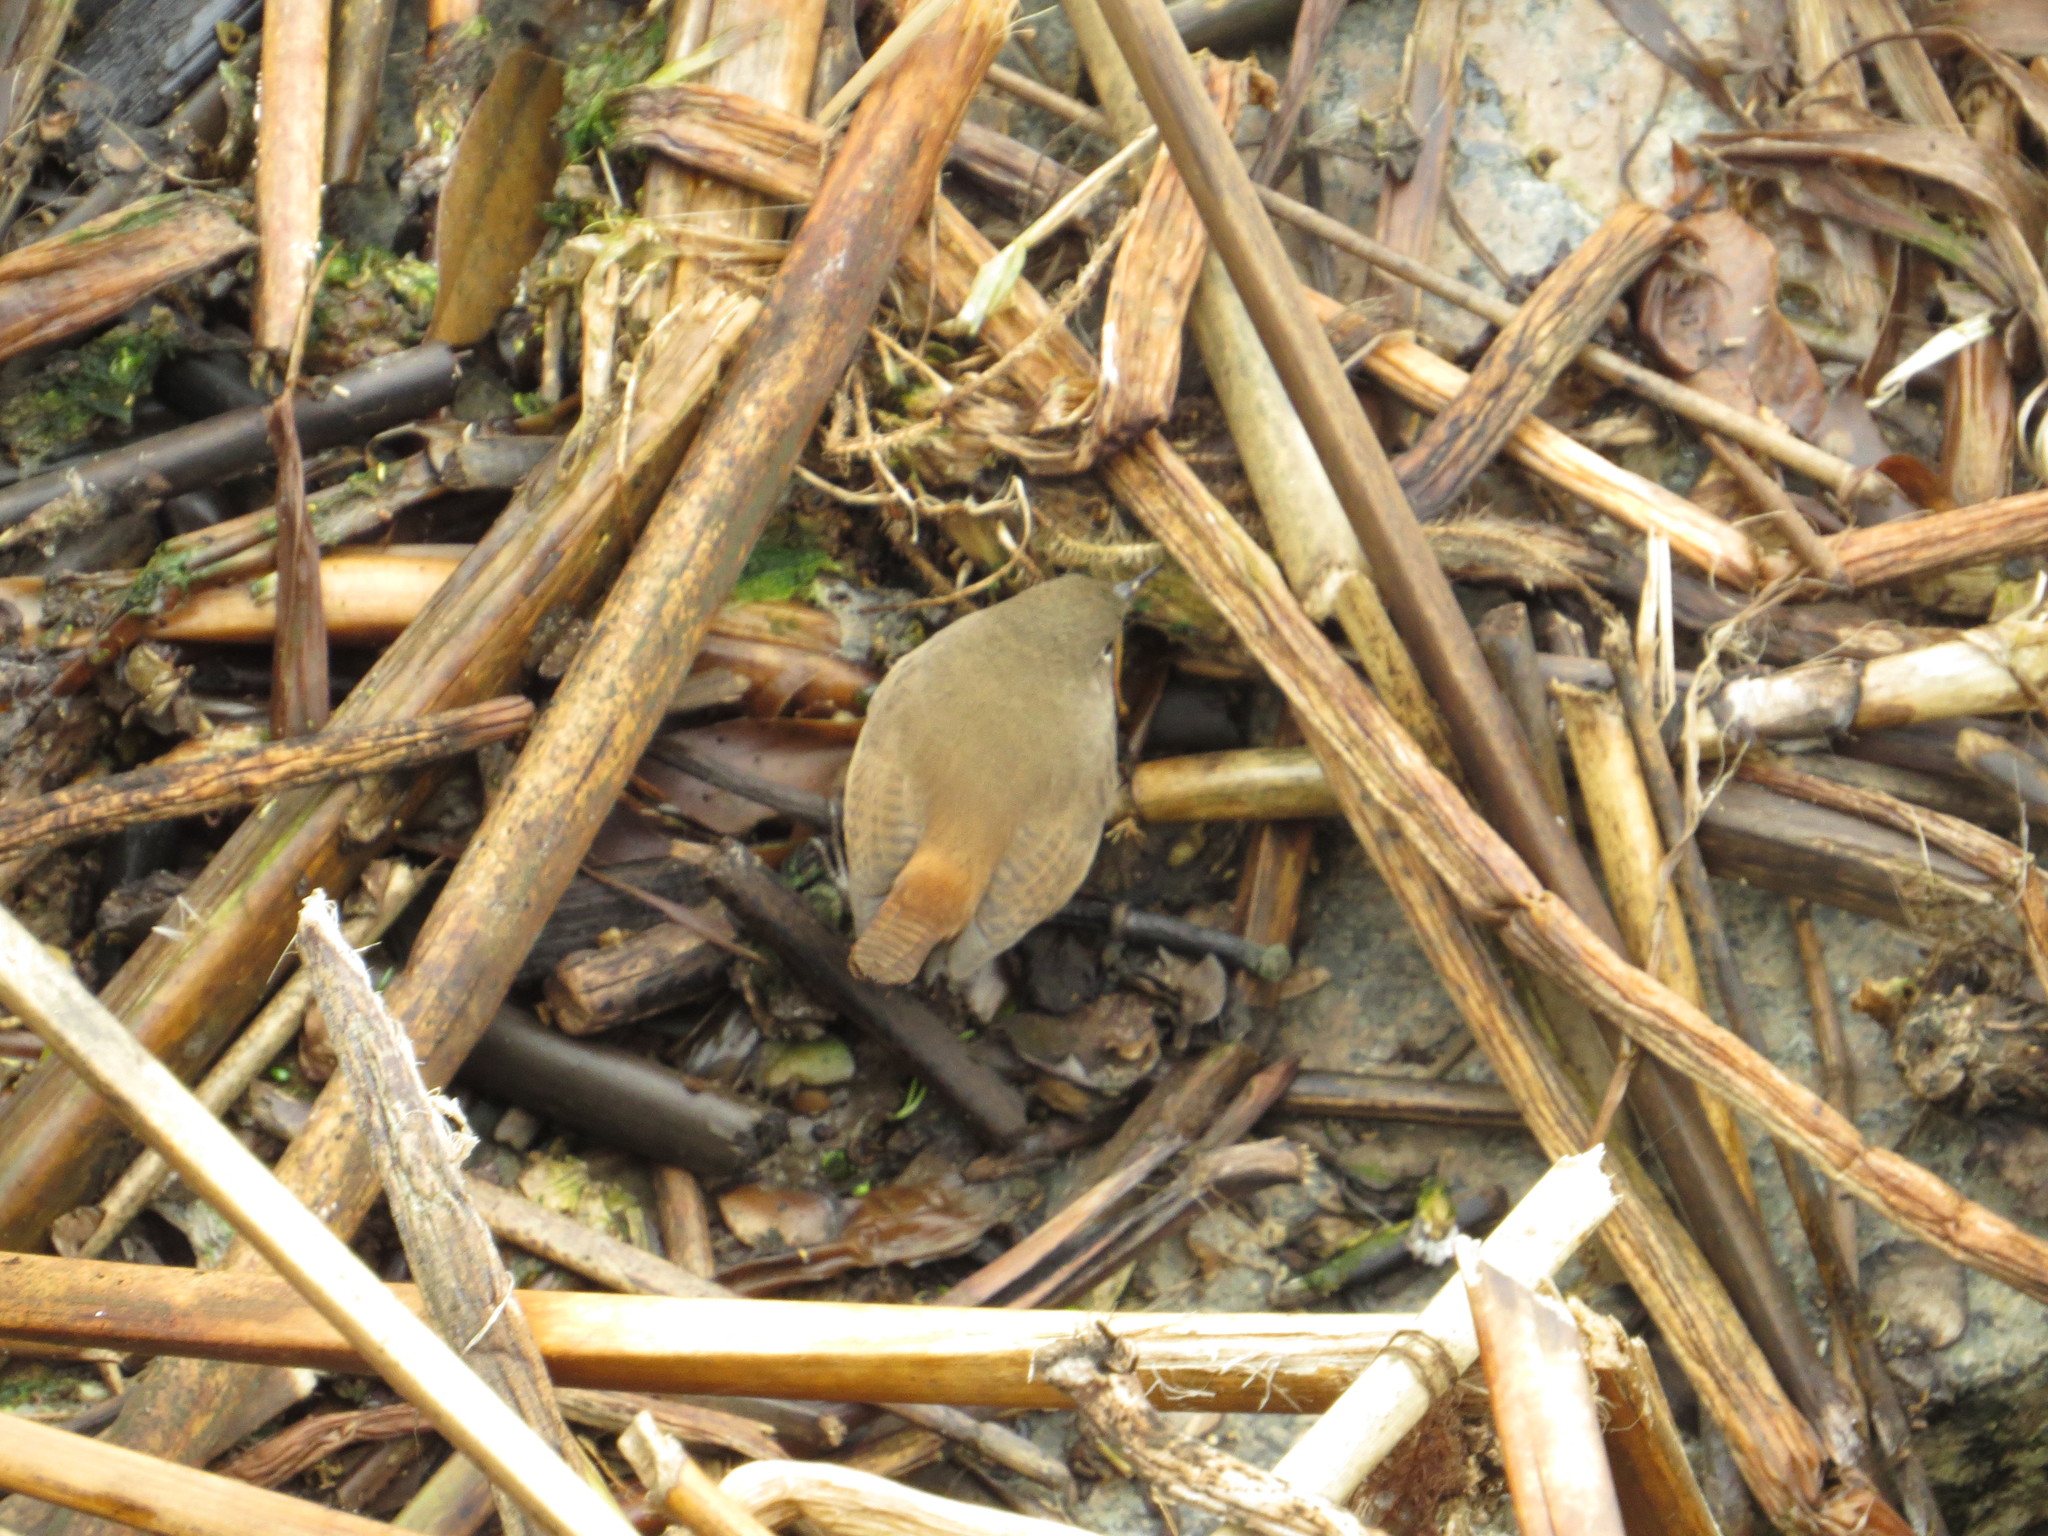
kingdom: Animalia
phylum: Chordata
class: Aves
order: Passeriformes
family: Troglodytidae
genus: Troglodytes
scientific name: Troglodytes aedon
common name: House wren
